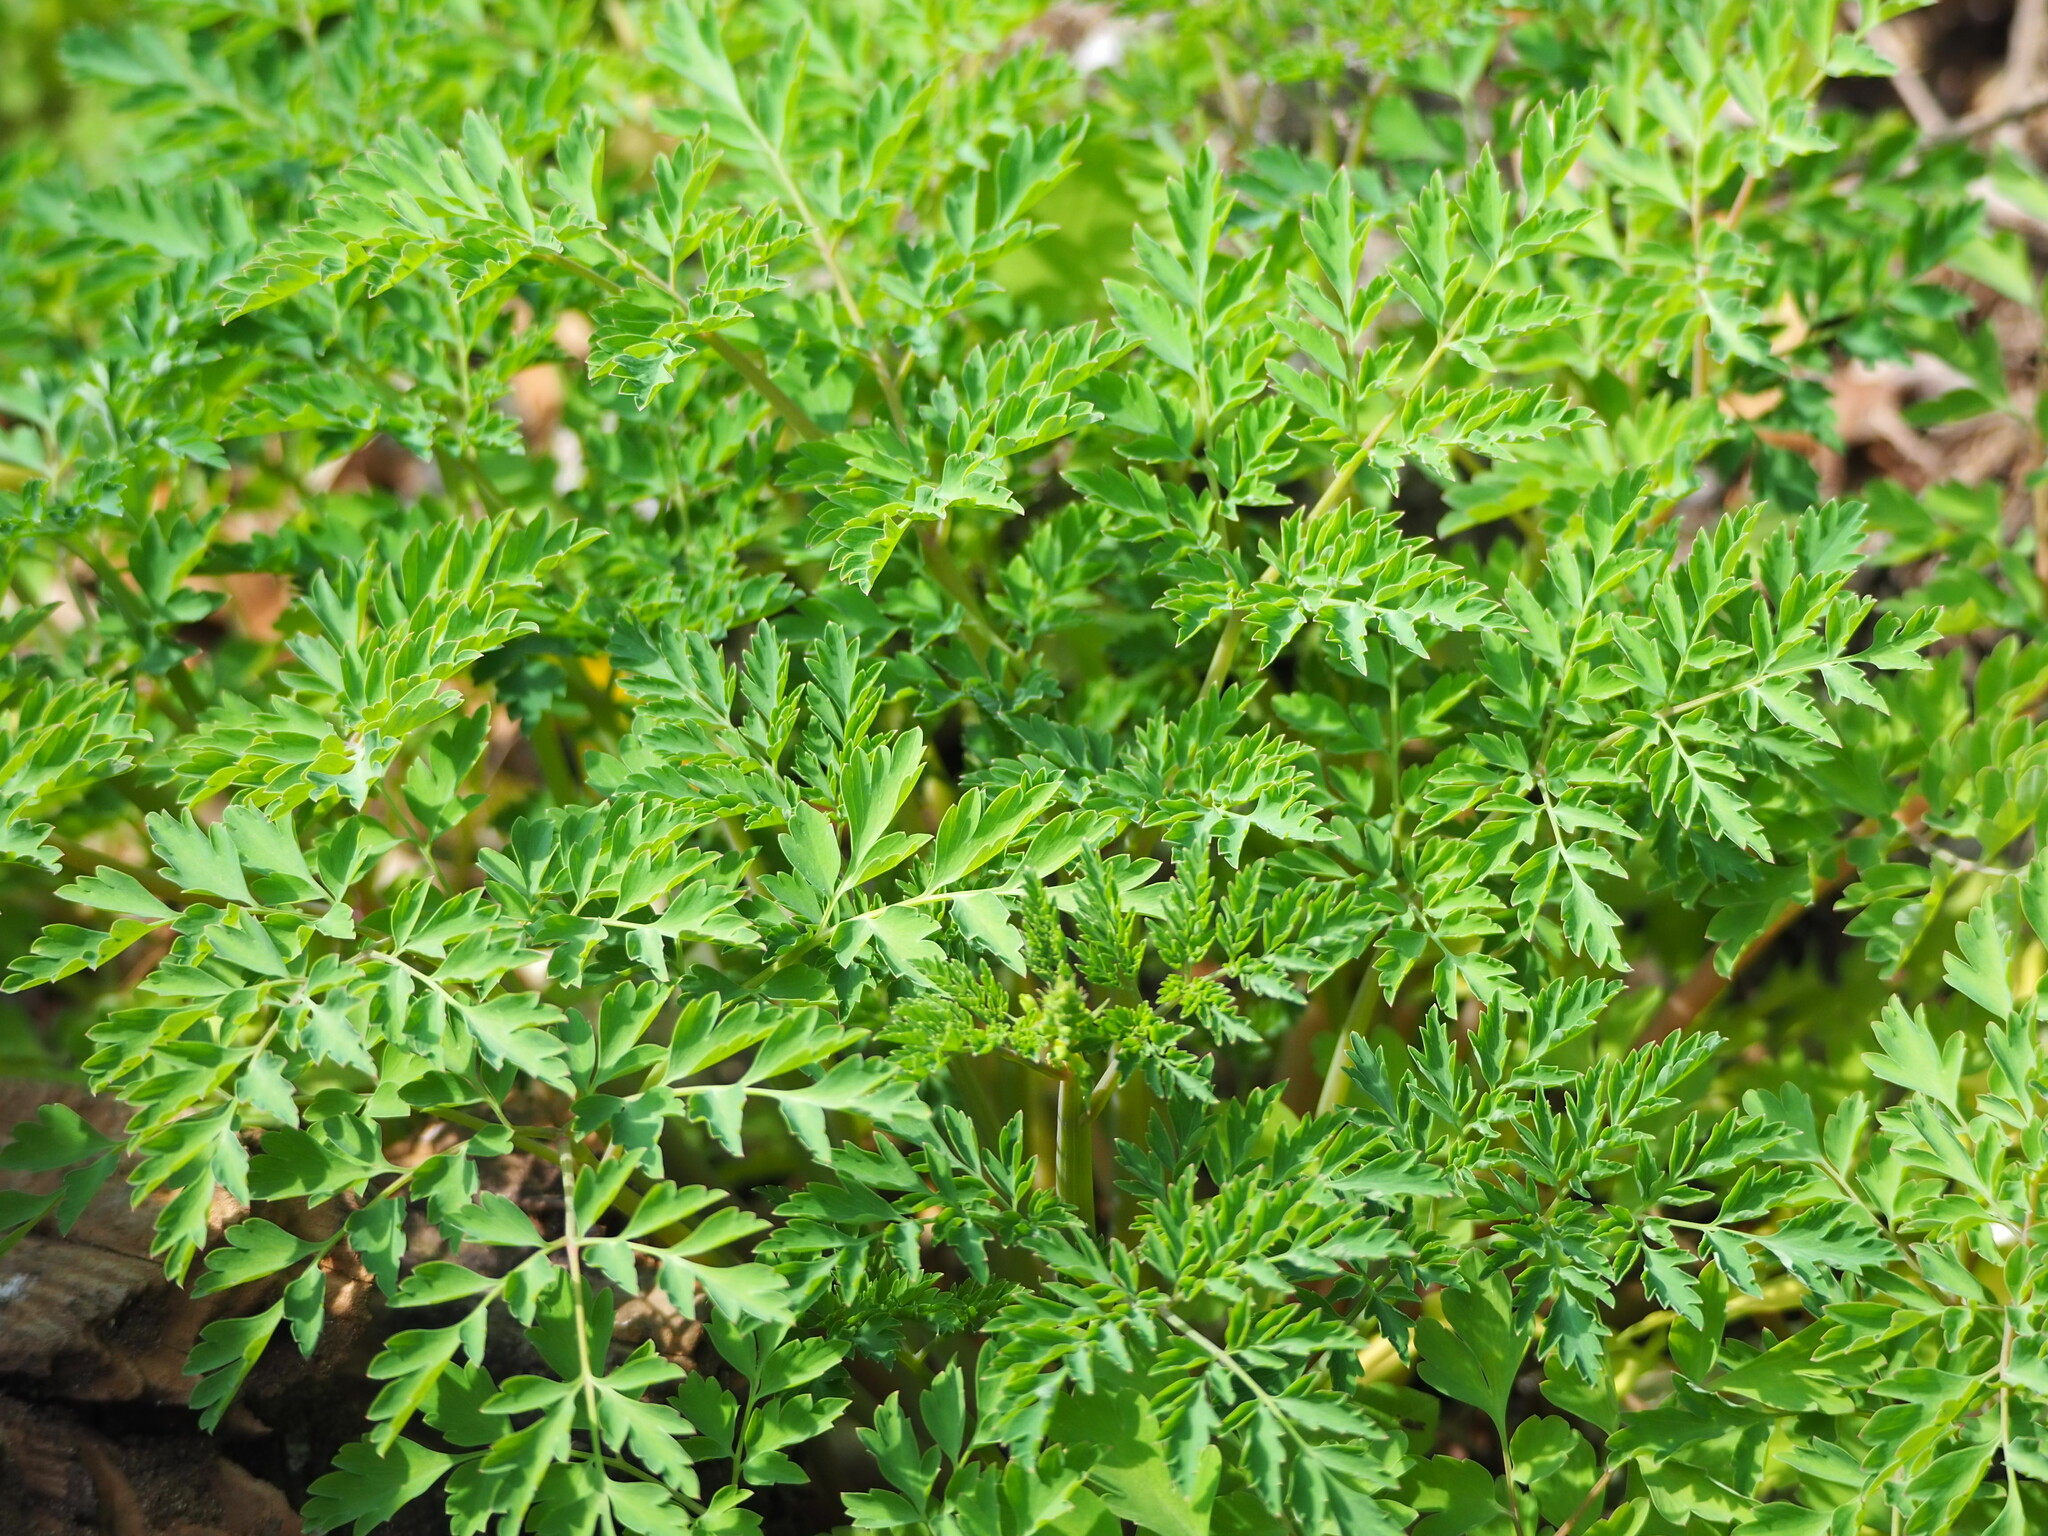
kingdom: Plantae
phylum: Tracheophyta
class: Magnoliopsida
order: Ranunculales
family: Papaveraceae
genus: Corydalis
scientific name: Corydalis balansae
